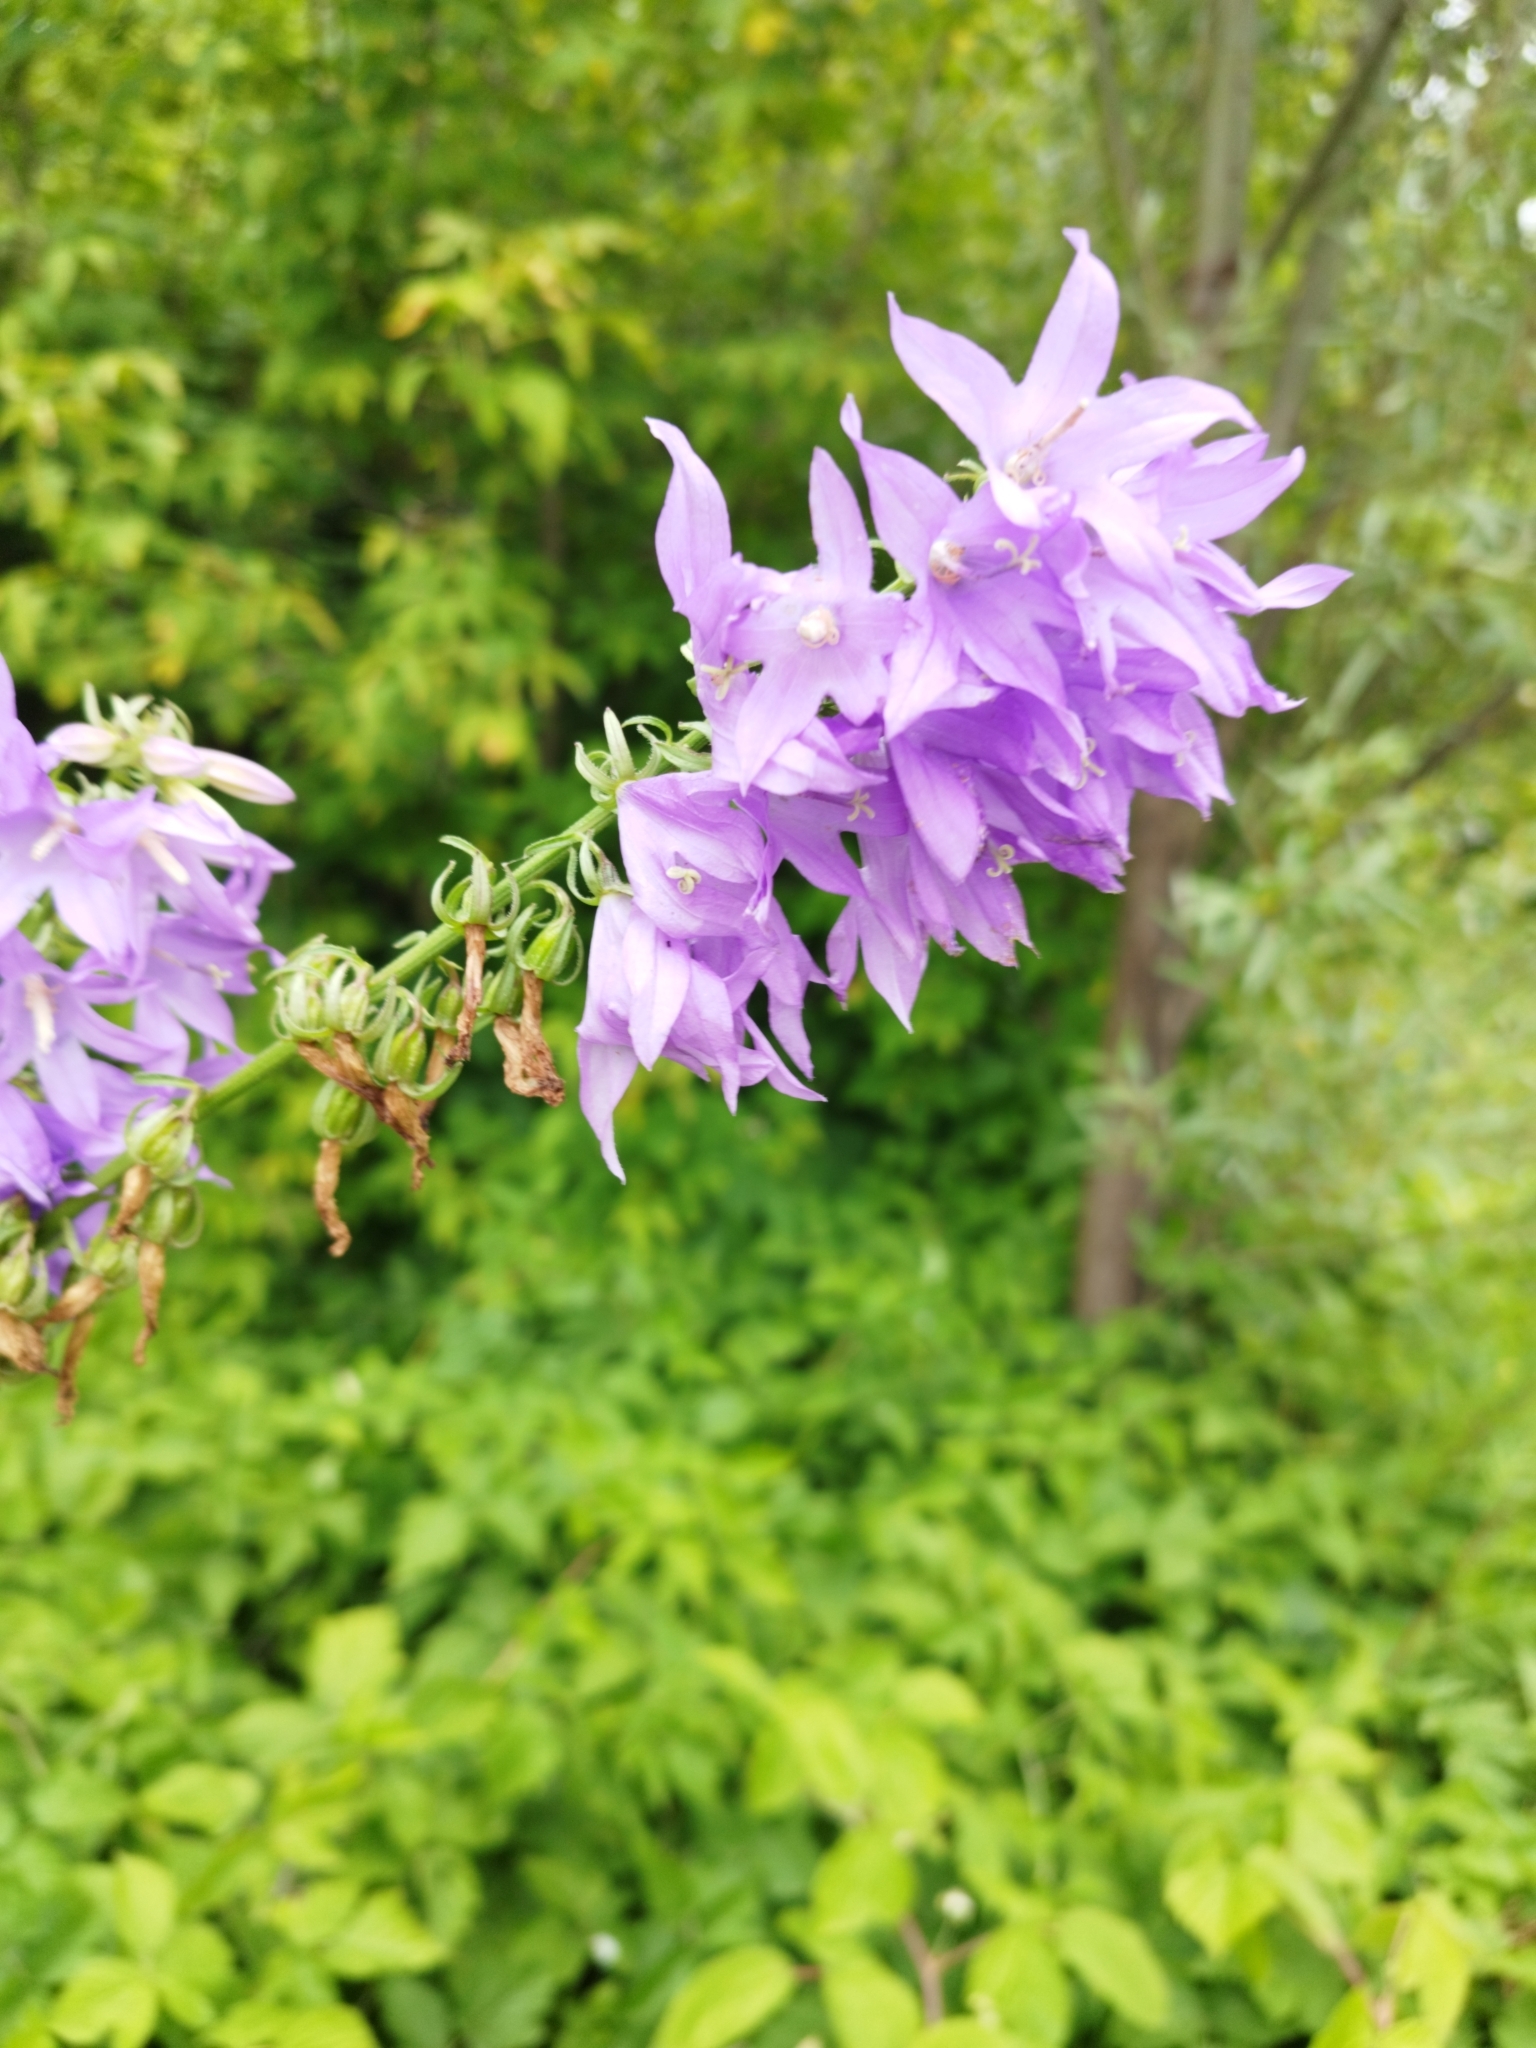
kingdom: Plantae
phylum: Tracheophyta
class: Magnoliopsida
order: Asterales
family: Campanulaceae
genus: Campanula
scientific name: Campanula rapunculoides
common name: Creeping bellflower
